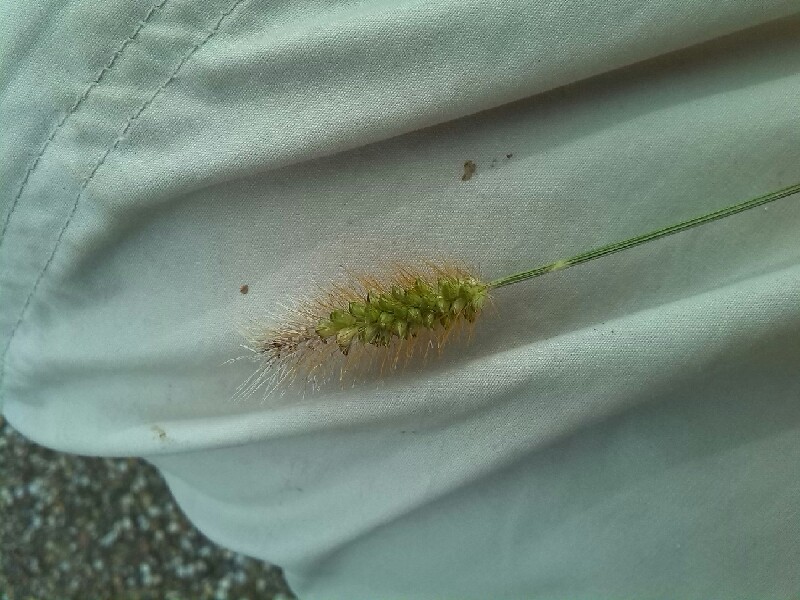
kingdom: Plantae
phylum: Tracheophyta
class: Liliopsida
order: Poales
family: Poaceae
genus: Setaria
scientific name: Setaria pumila
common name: Yellow bristle-grass
